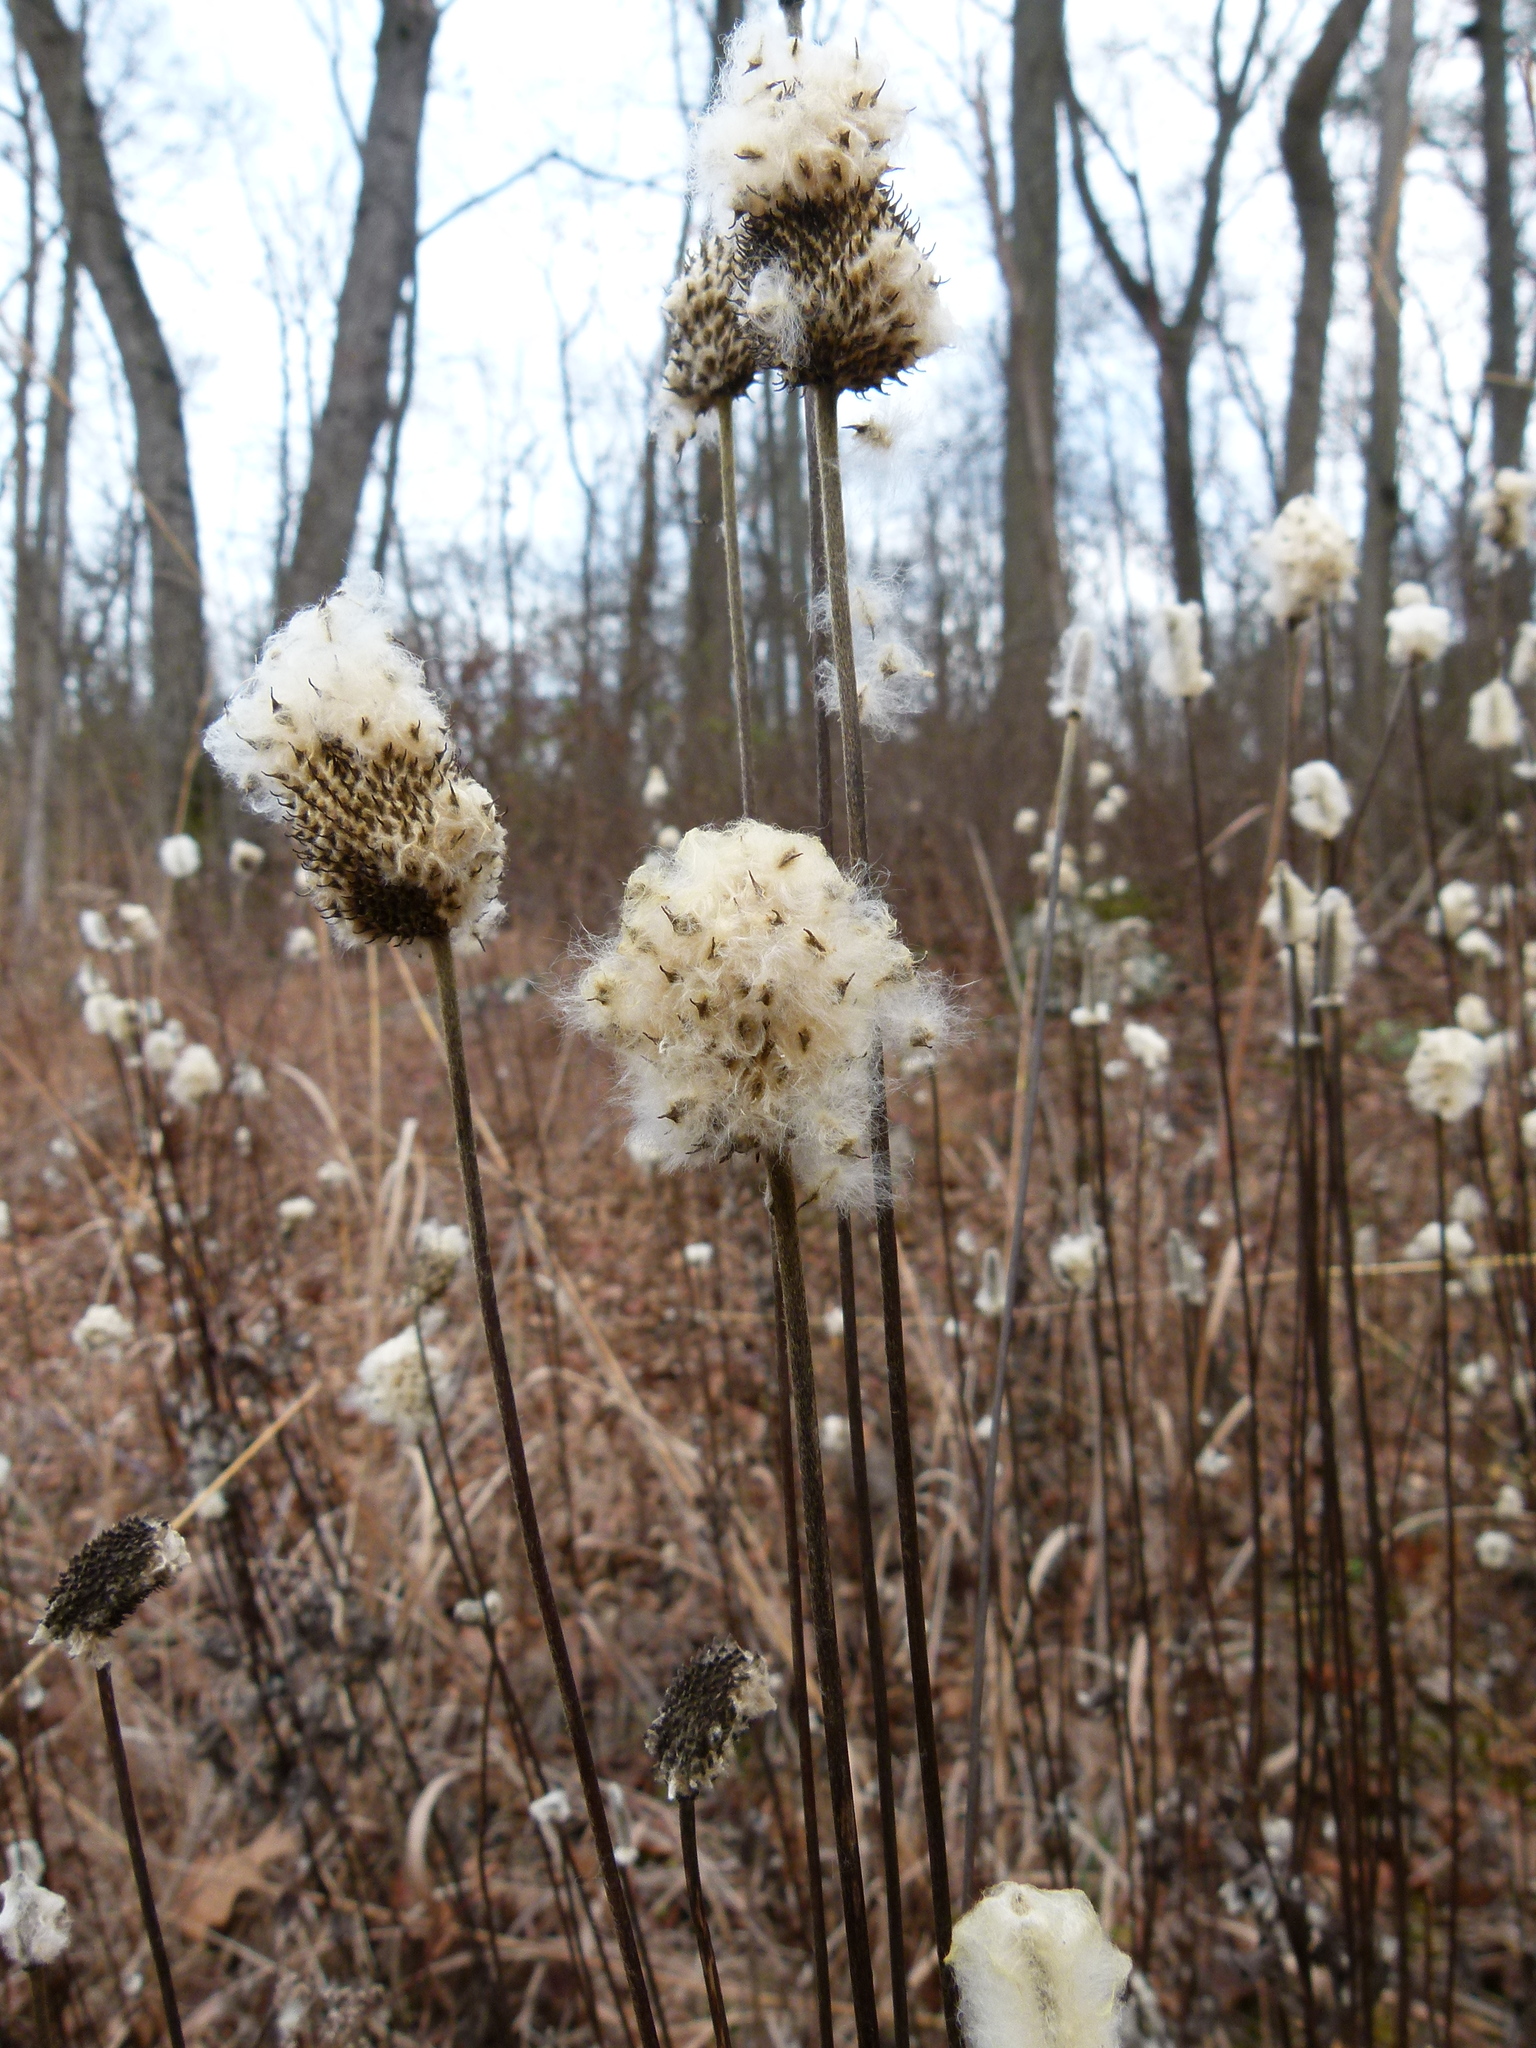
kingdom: Plantae
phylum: Tracheophyta
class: Magnoliopsida
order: Ranunculales
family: Ranunculaceae
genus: Anemone
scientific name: Anemone virginiana
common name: Tall anemone
